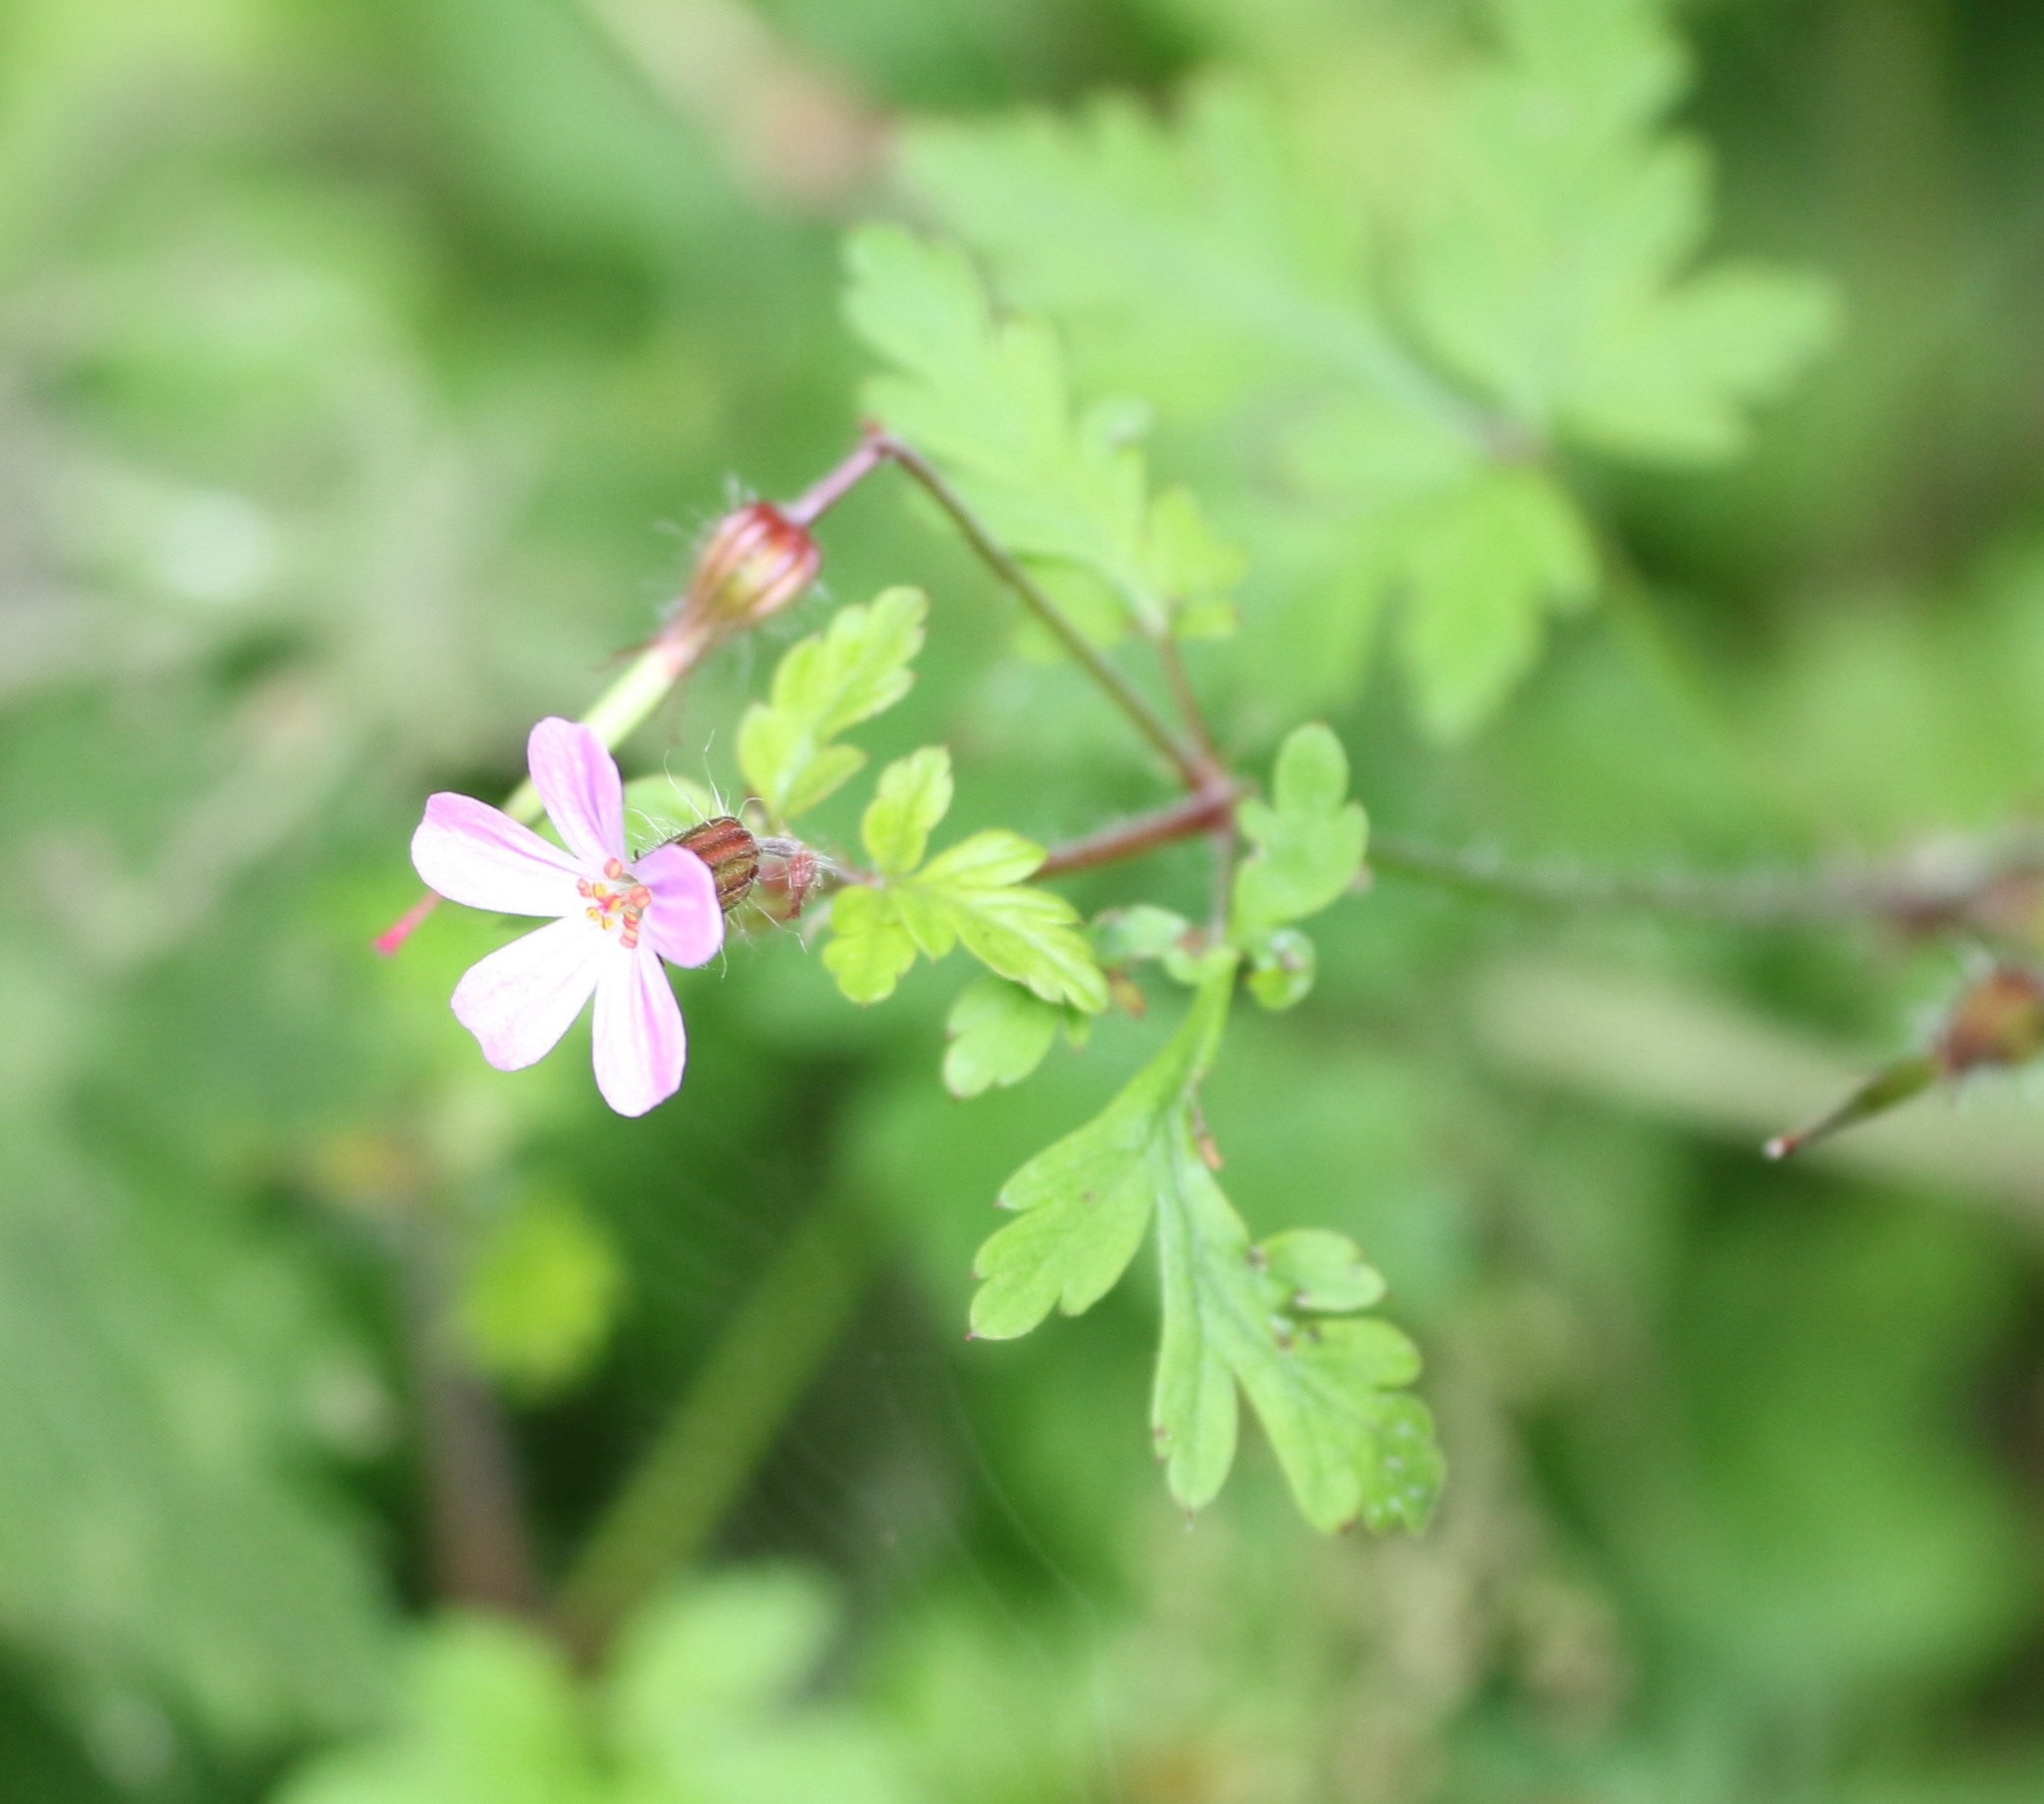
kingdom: Plantae
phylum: Tracheophyta
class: Magnoliopsida
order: Geraniales
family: Geraniaceae
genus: Geranium
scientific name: Geranium robertianum
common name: Herb-robert
